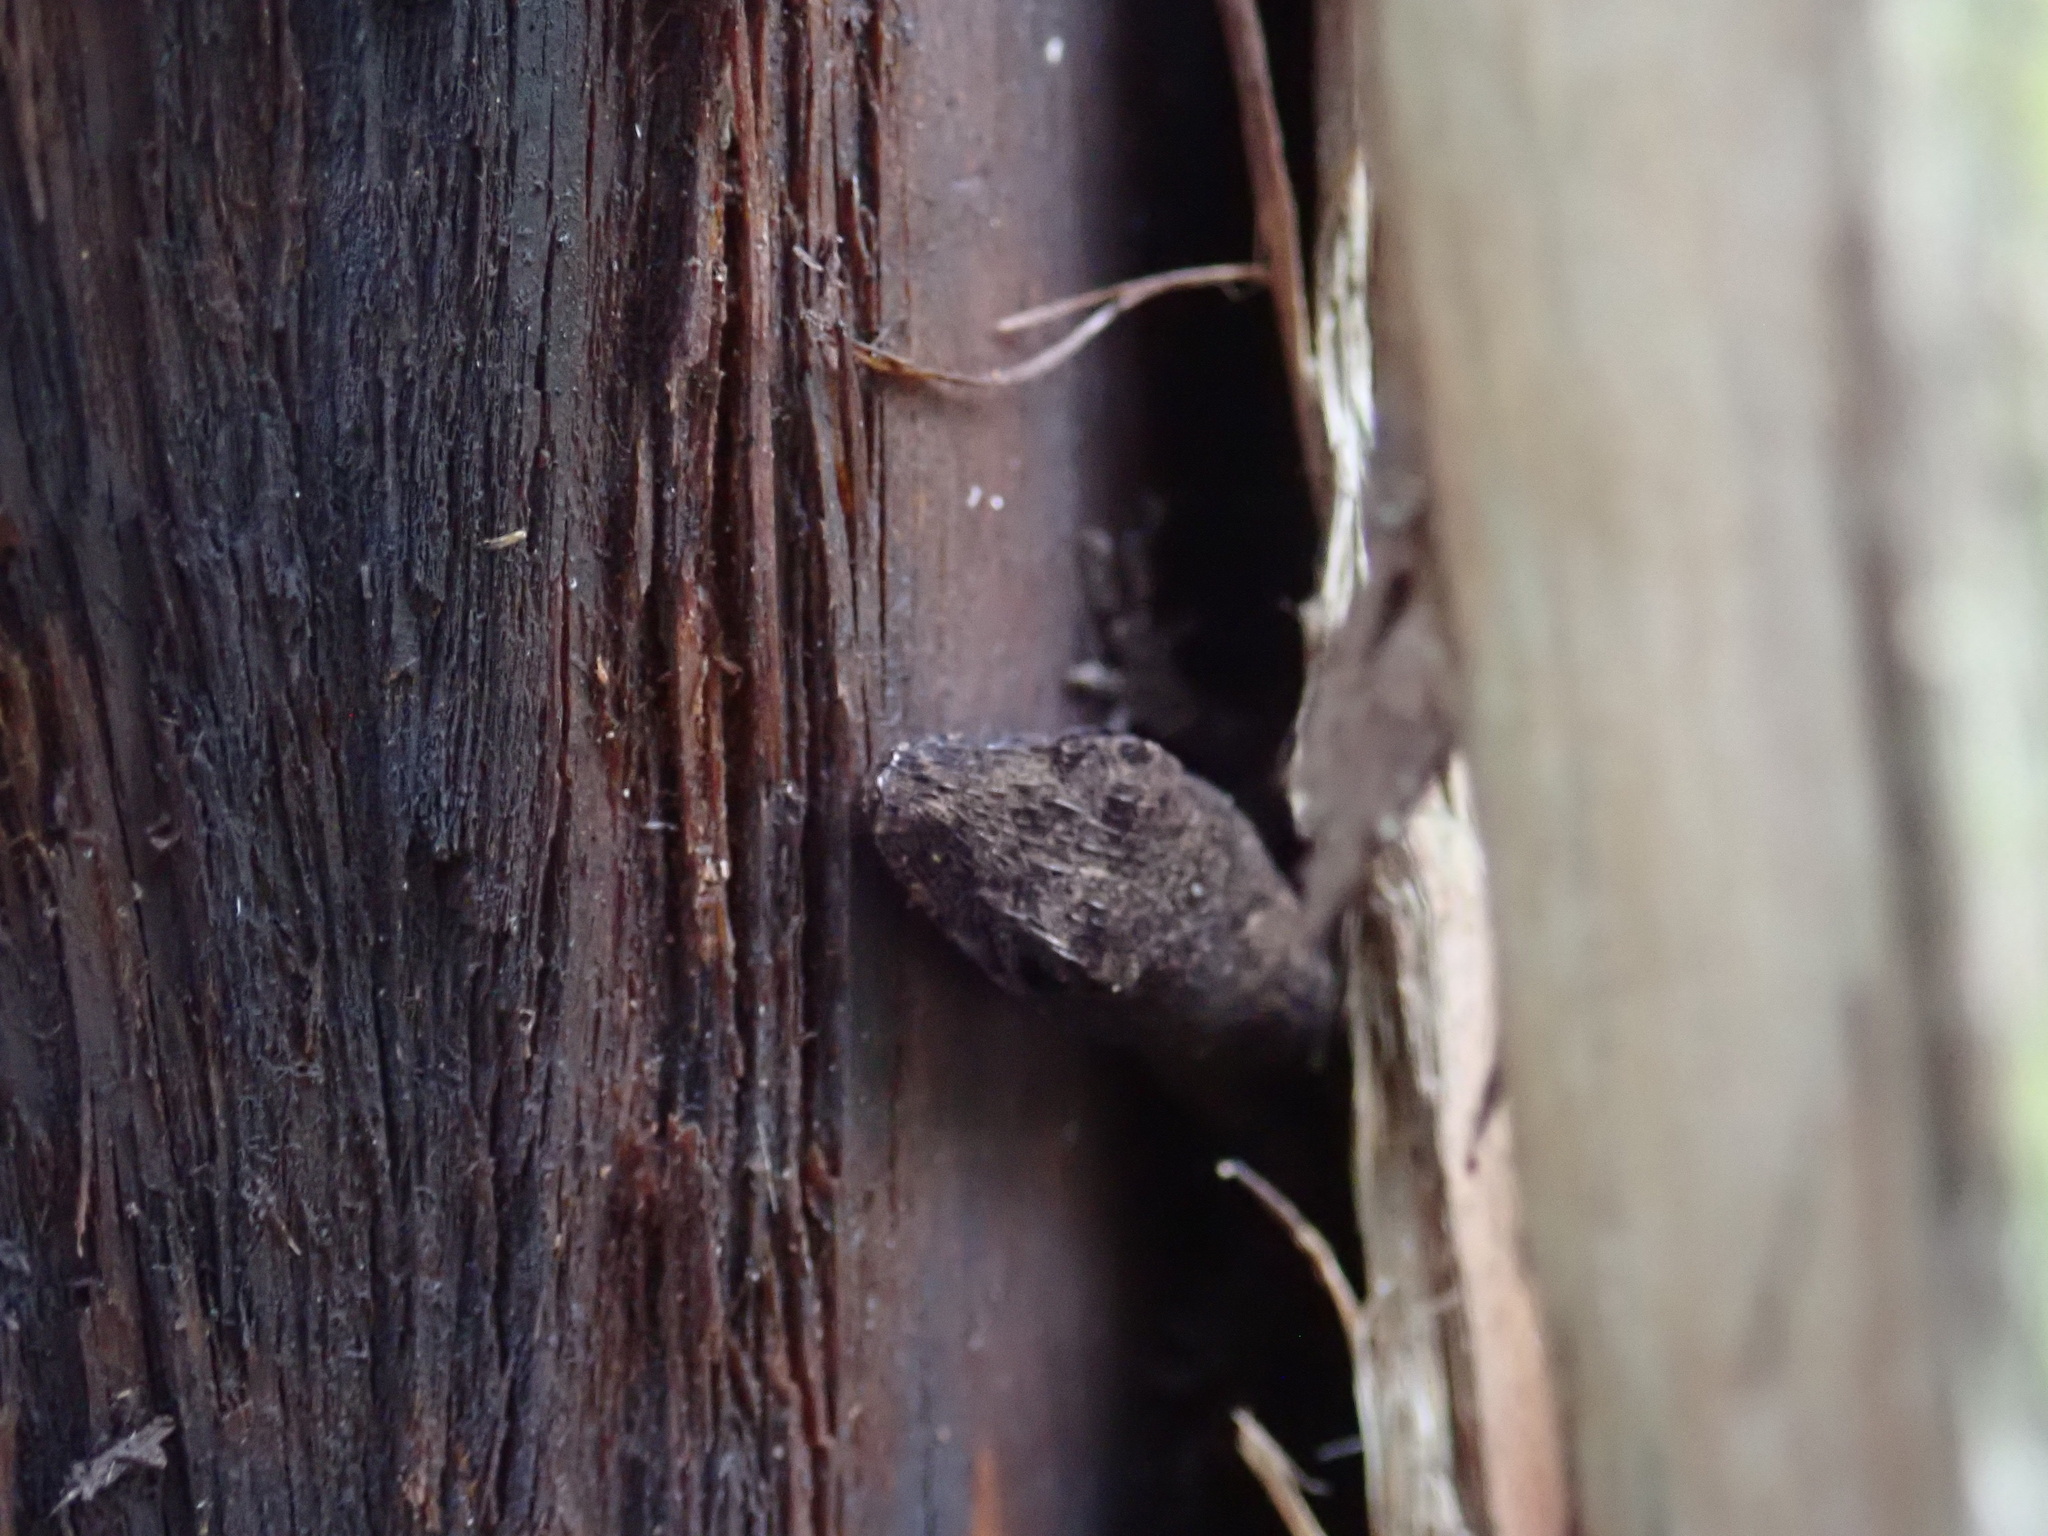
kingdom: Animalia
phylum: Chordata
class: Squamata
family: Dactyloidae
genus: Anolis
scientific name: Anolis sagrei
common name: Brown anole
